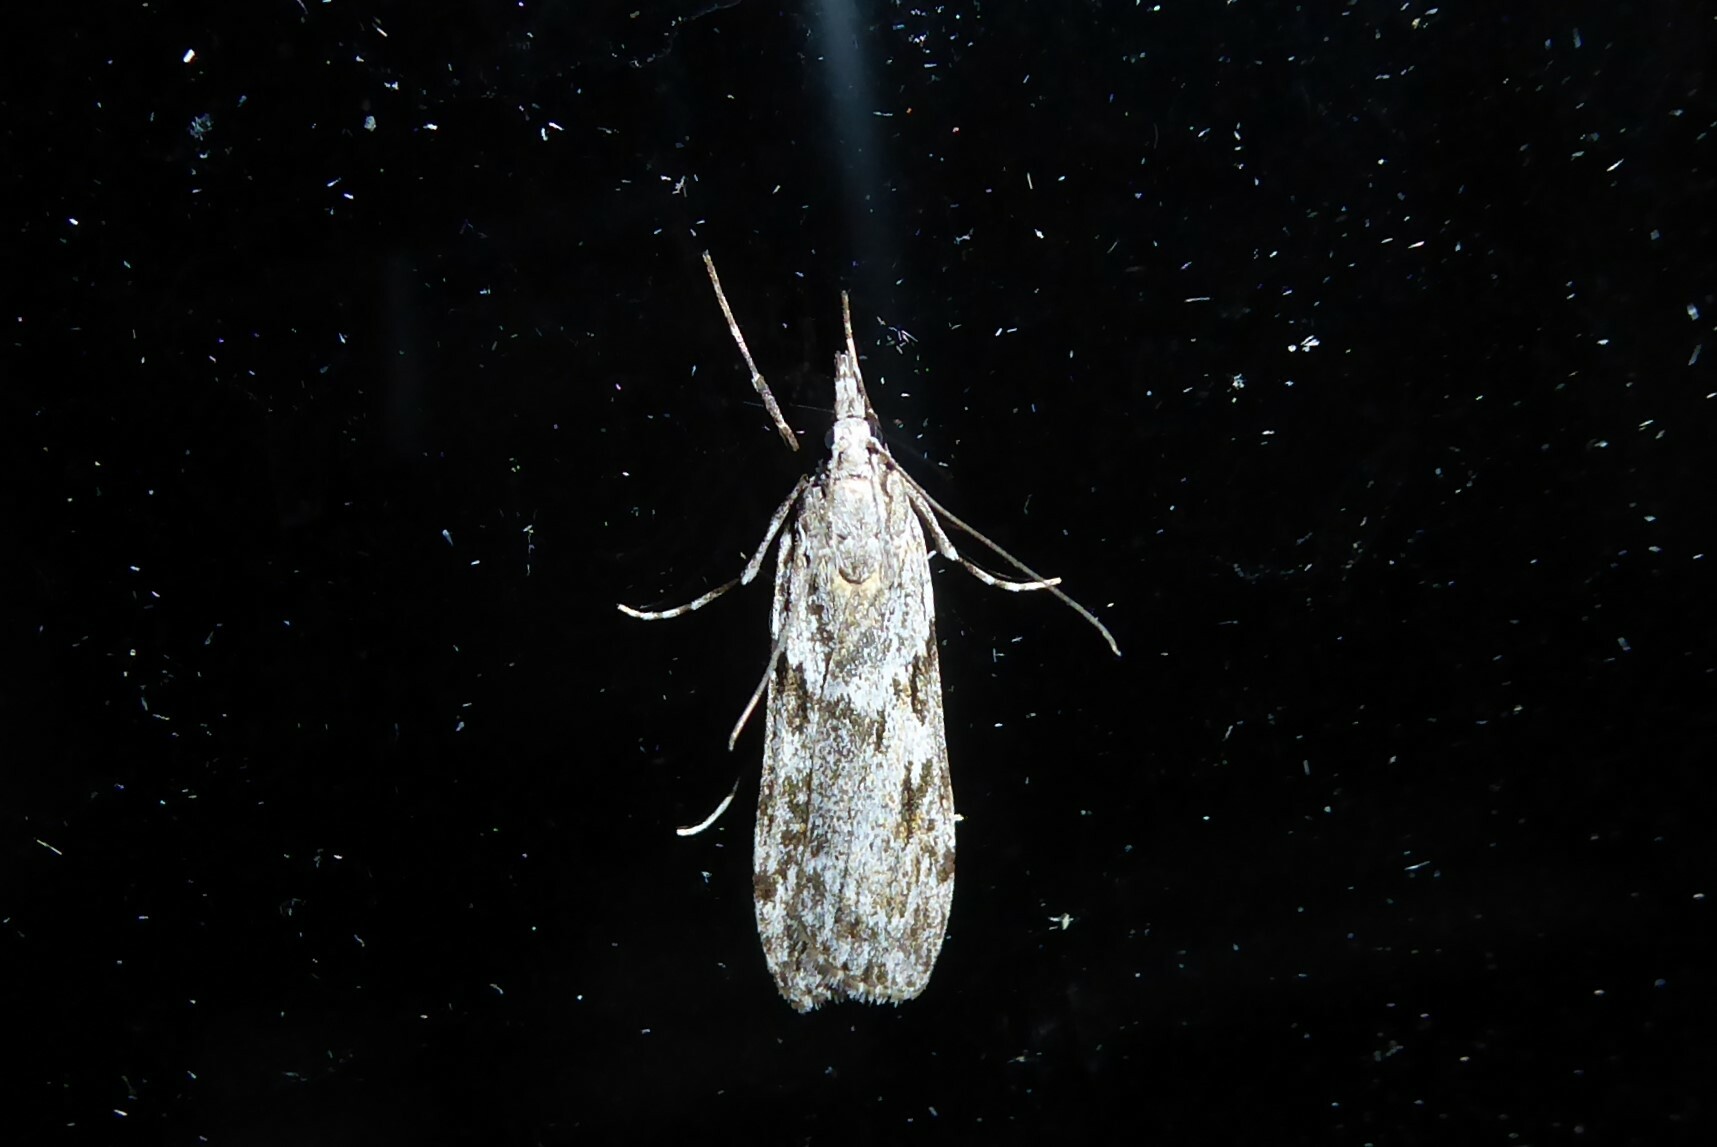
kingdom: Animalia
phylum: Arthropoda
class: Insecta
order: Lepidoptera
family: Crambidae
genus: Scoparia
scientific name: Scoparia halopis
